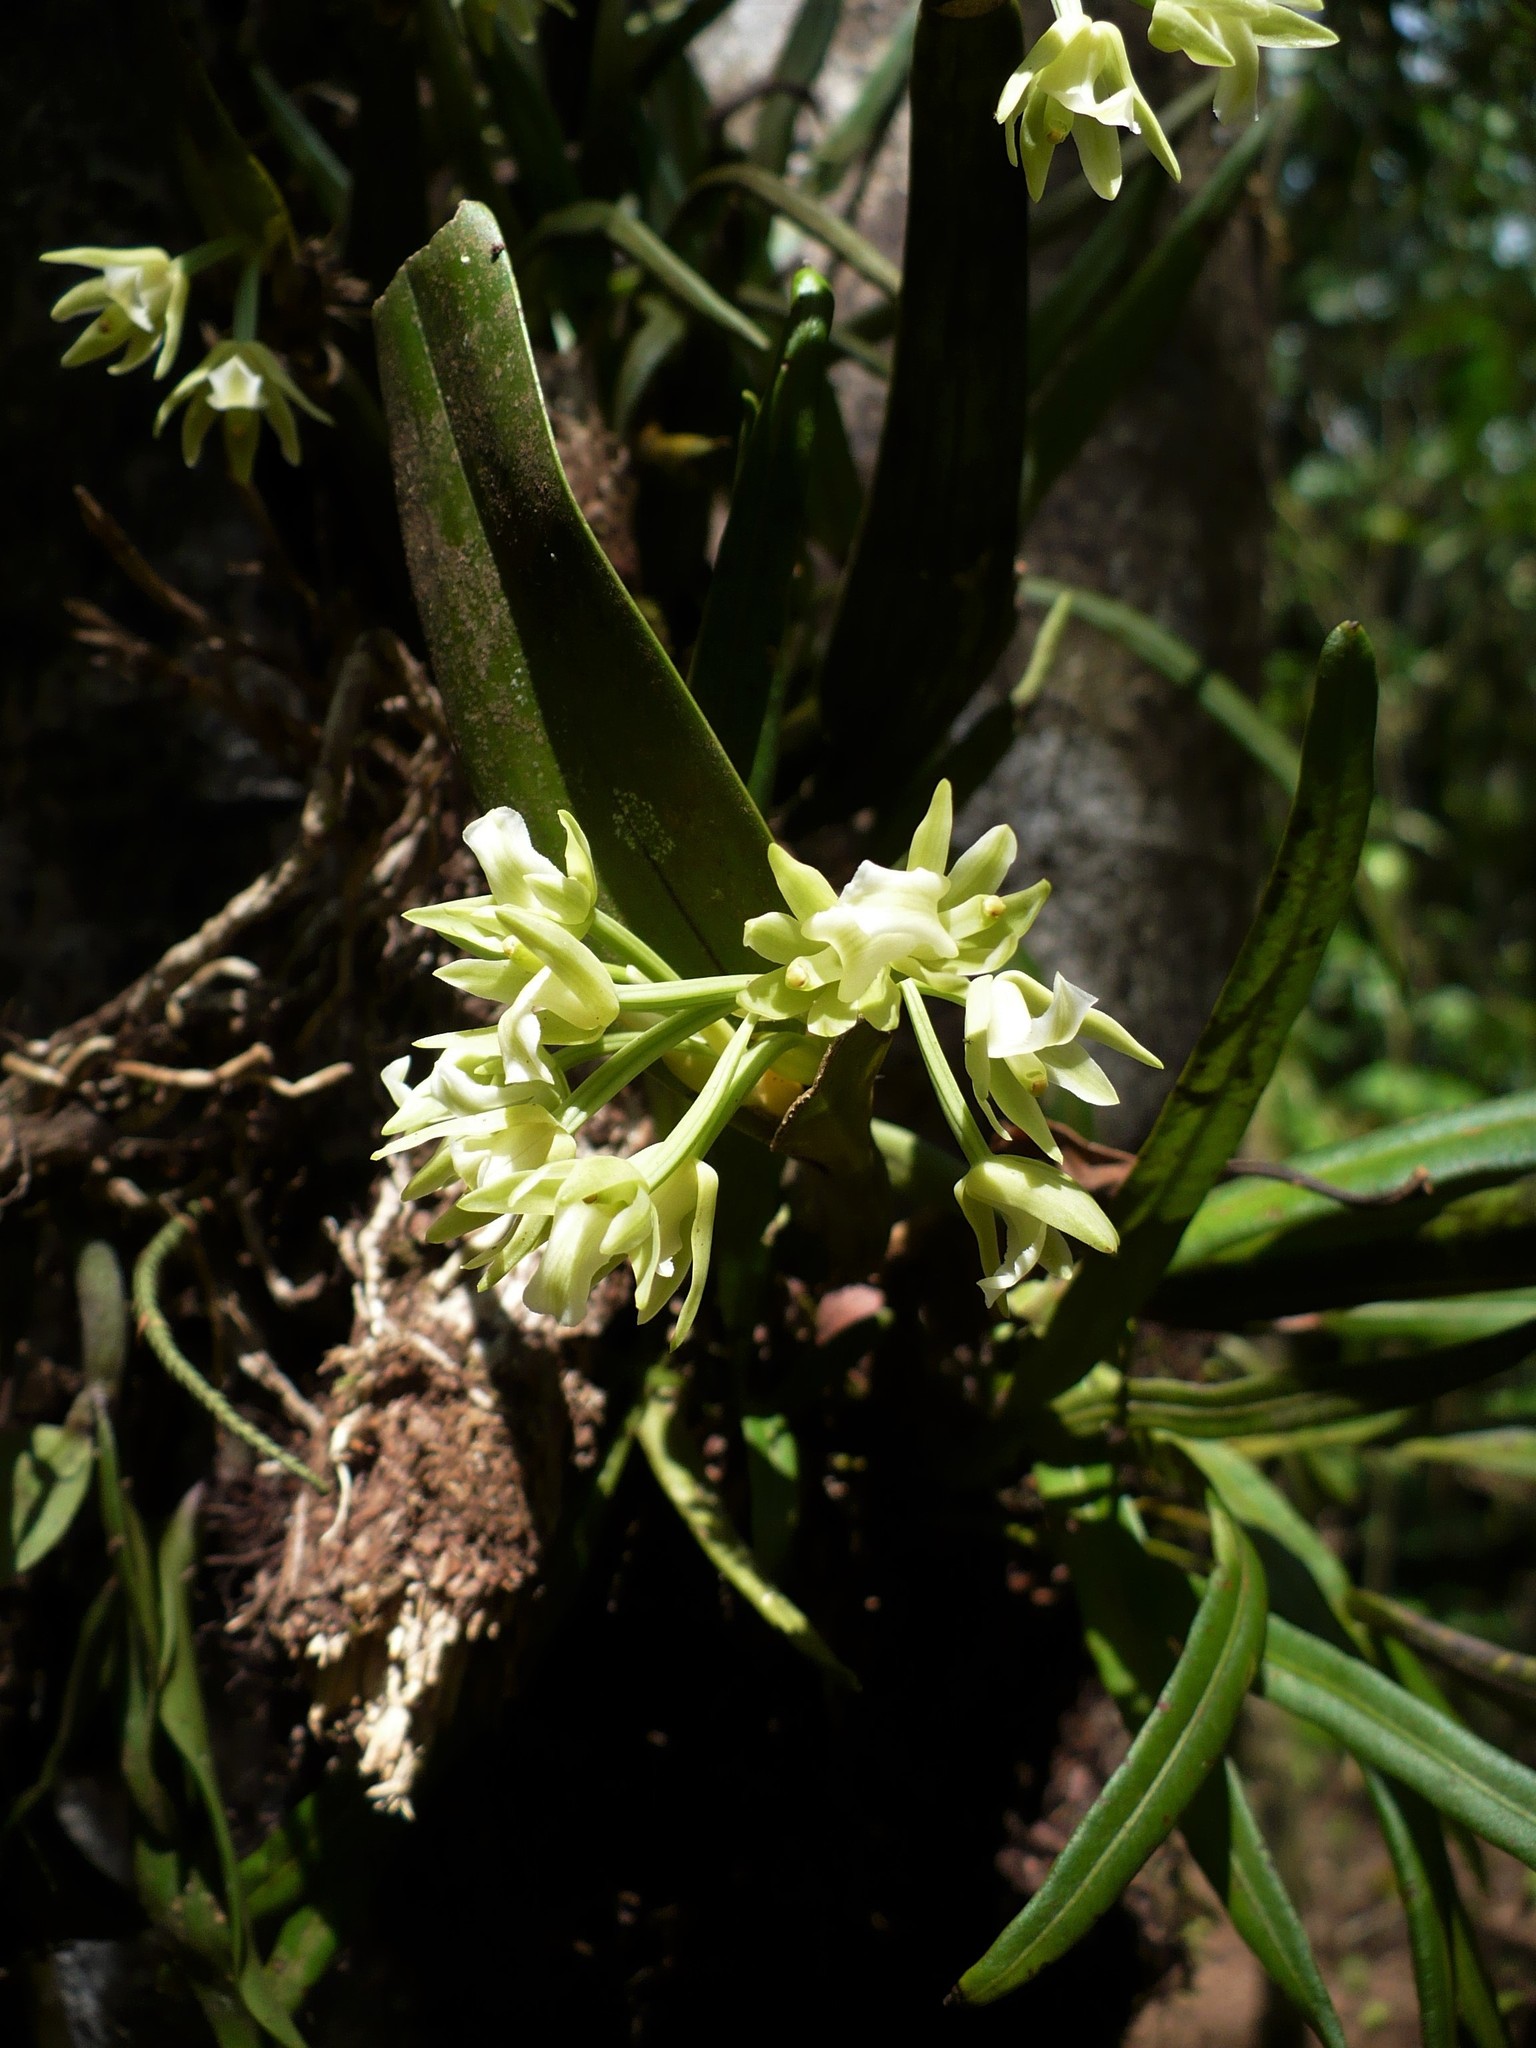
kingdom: Plantae
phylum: Tracheophyta
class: Liliopsida
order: Asparagales
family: Orchidaceae
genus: Scaphyglottis
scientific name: Scaphyglottis pachybulbon
